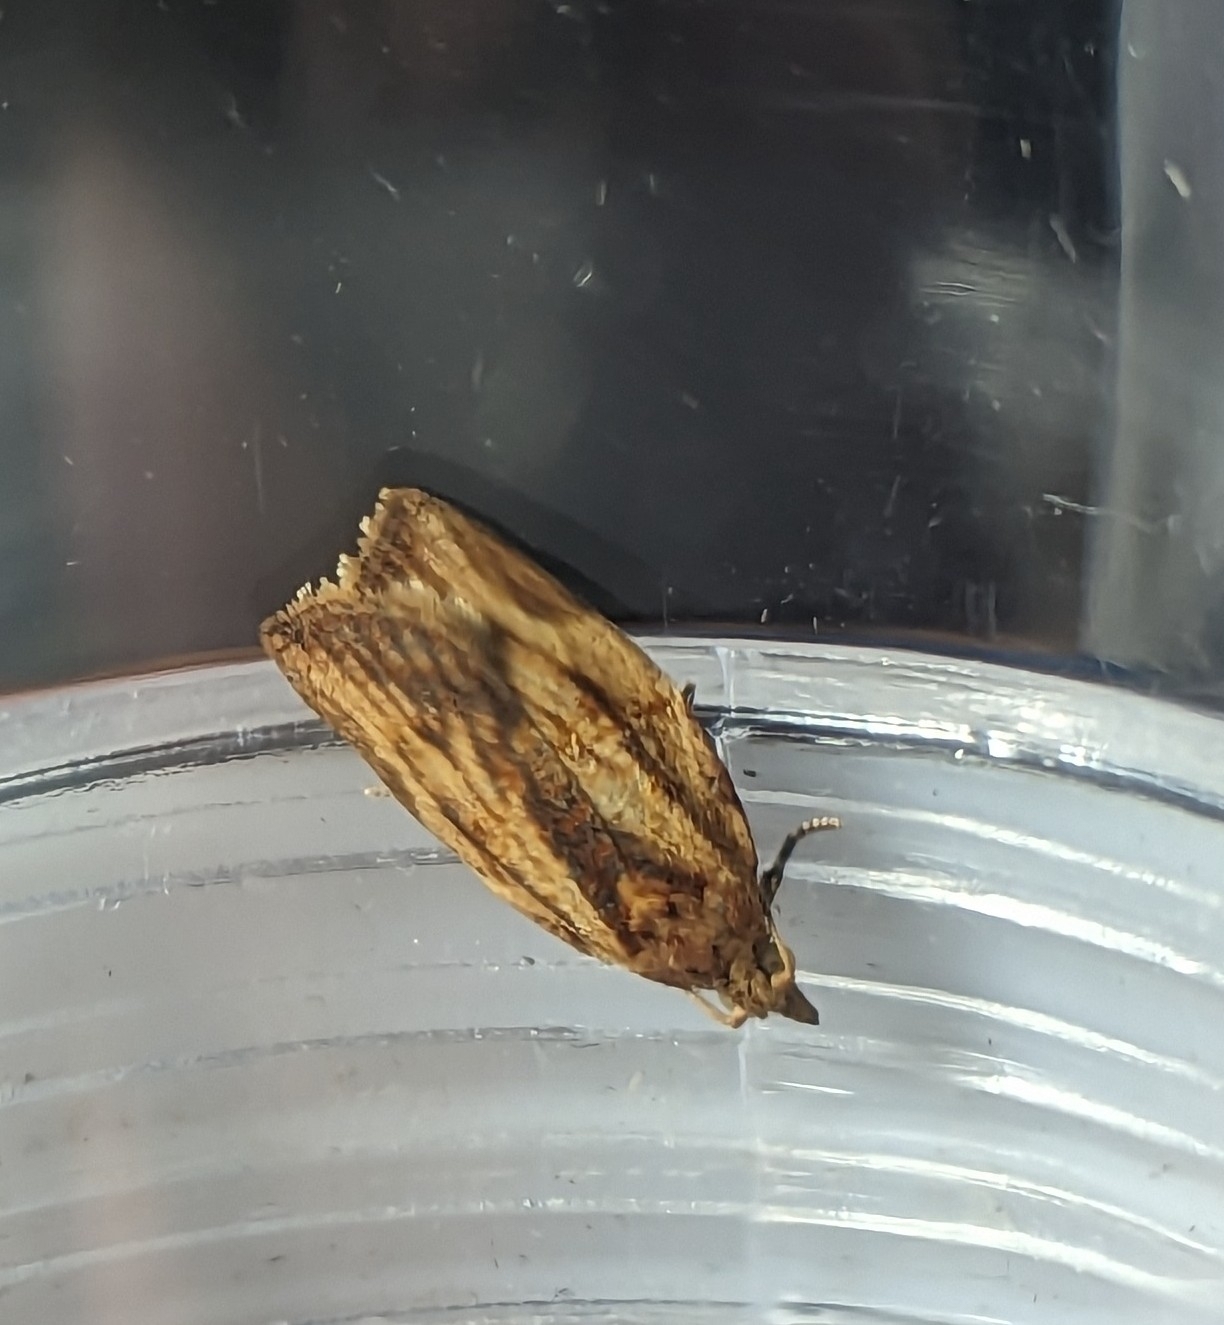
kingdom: Animalia
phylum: Arthropoda
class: Insecta
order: Lepidoptera
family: Tortricidae
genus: Epiphyas
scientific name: Epiphyas postvittana
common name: Light brown apple moth
